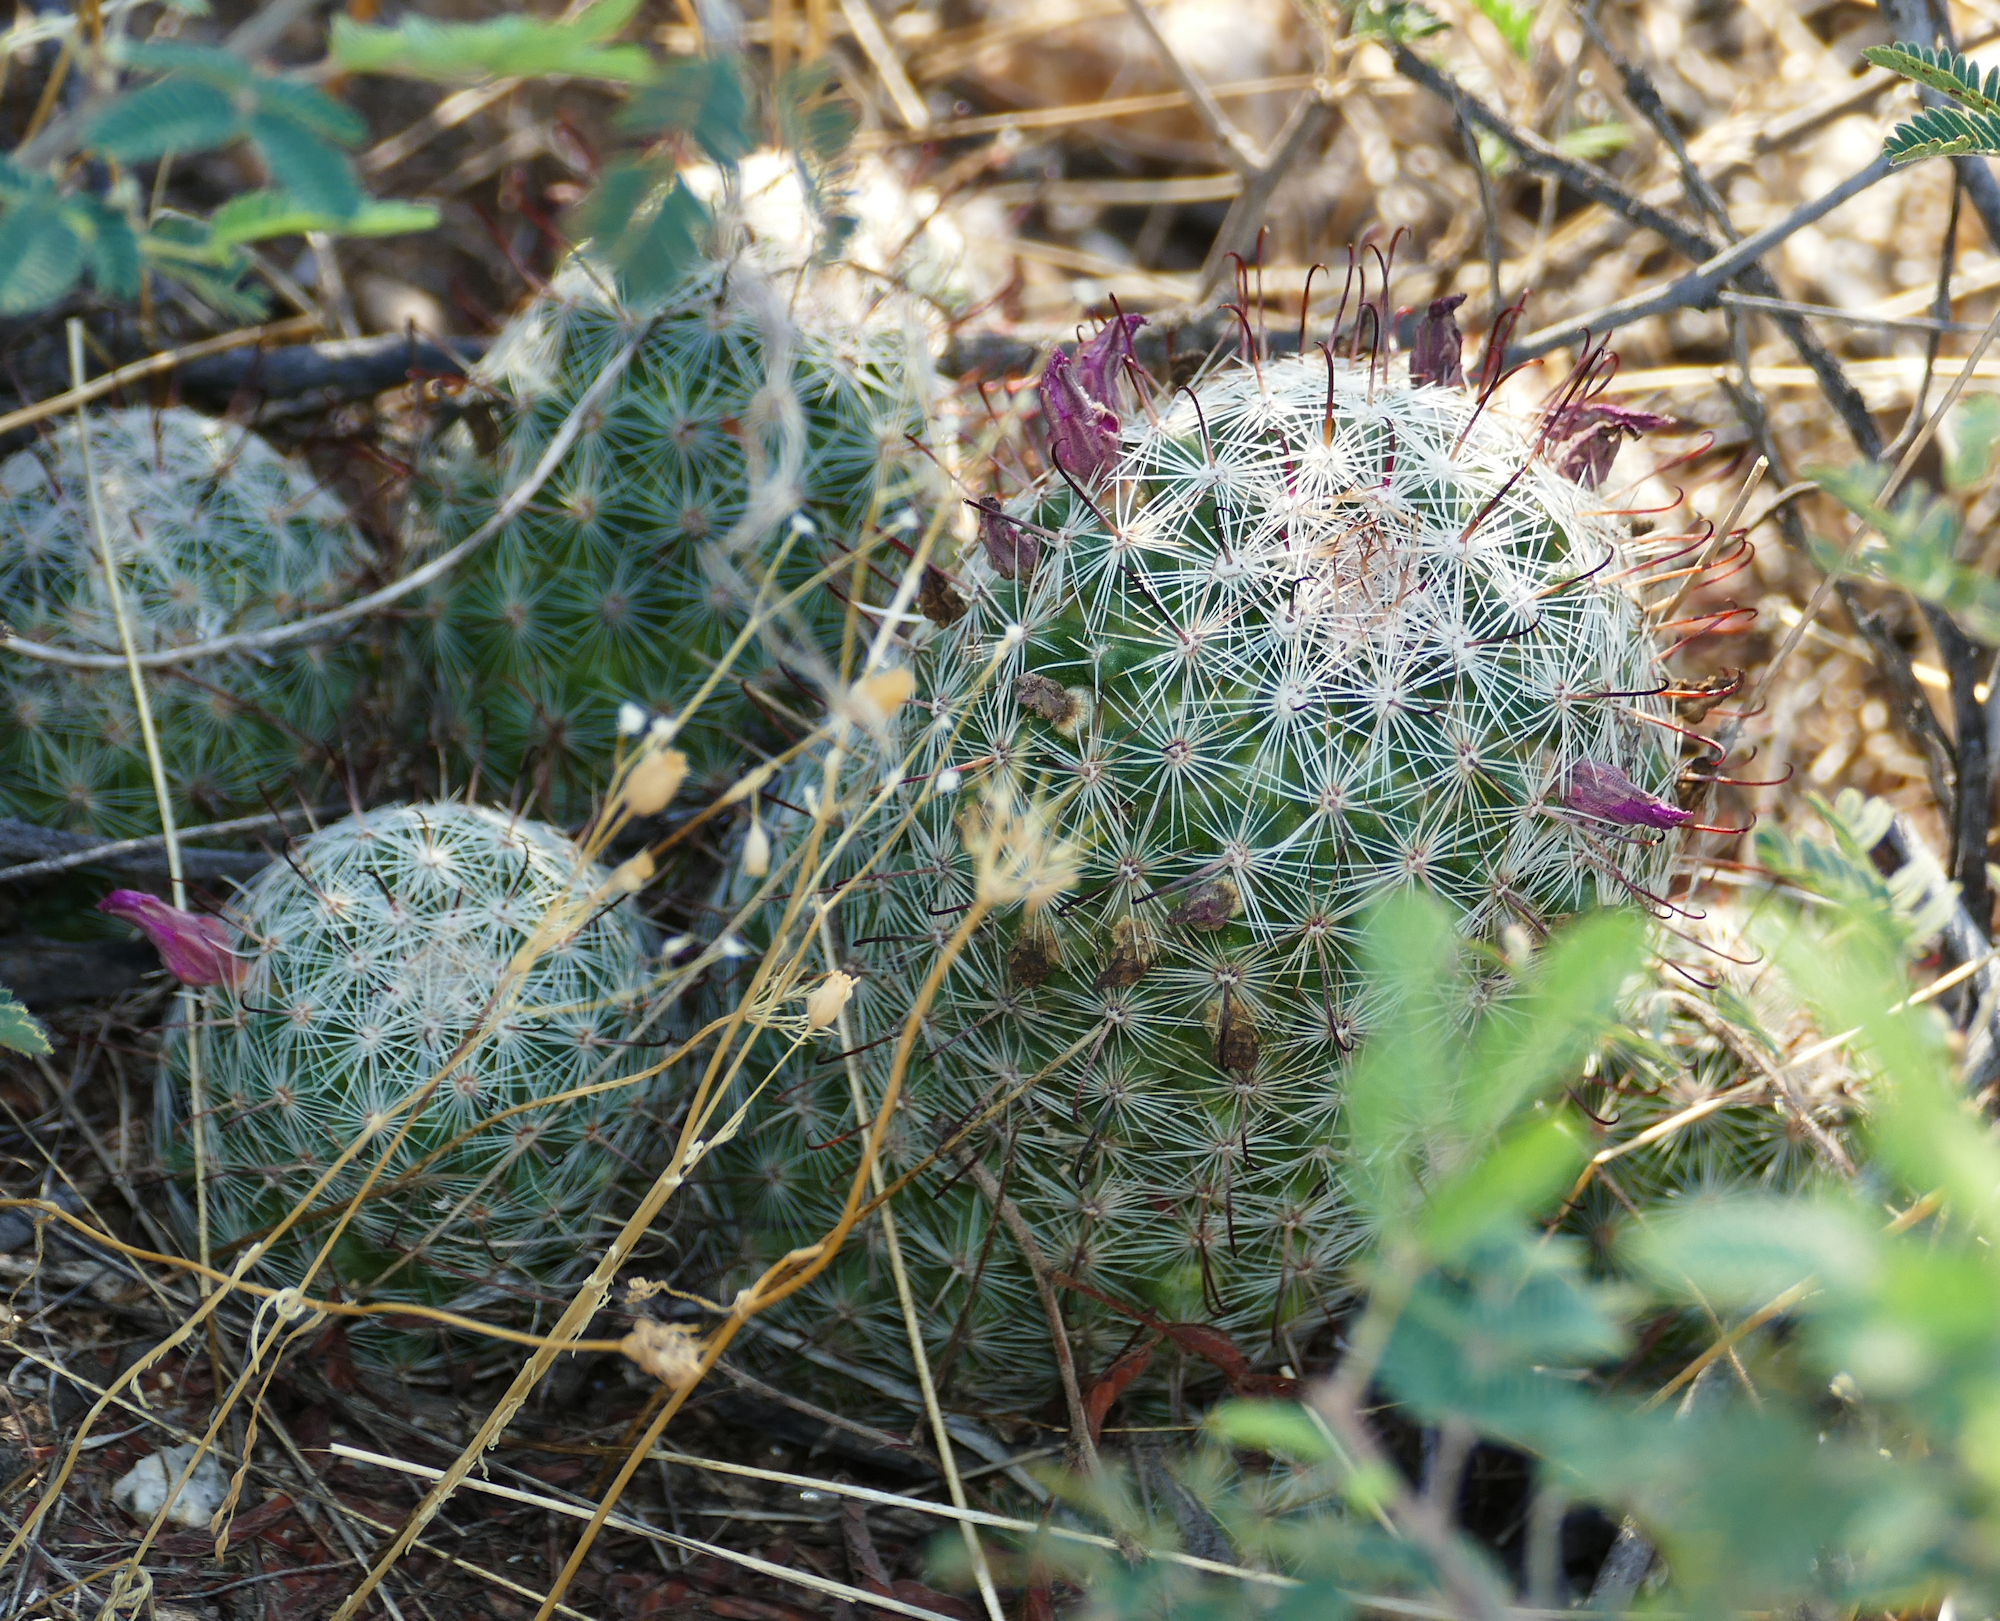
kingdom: Plantae
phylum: Tracheophyta
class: Magnoliopsida
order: Caryophyllales
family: Cactaceae
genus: Cochemiea
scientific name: Cochemiea grahamii
